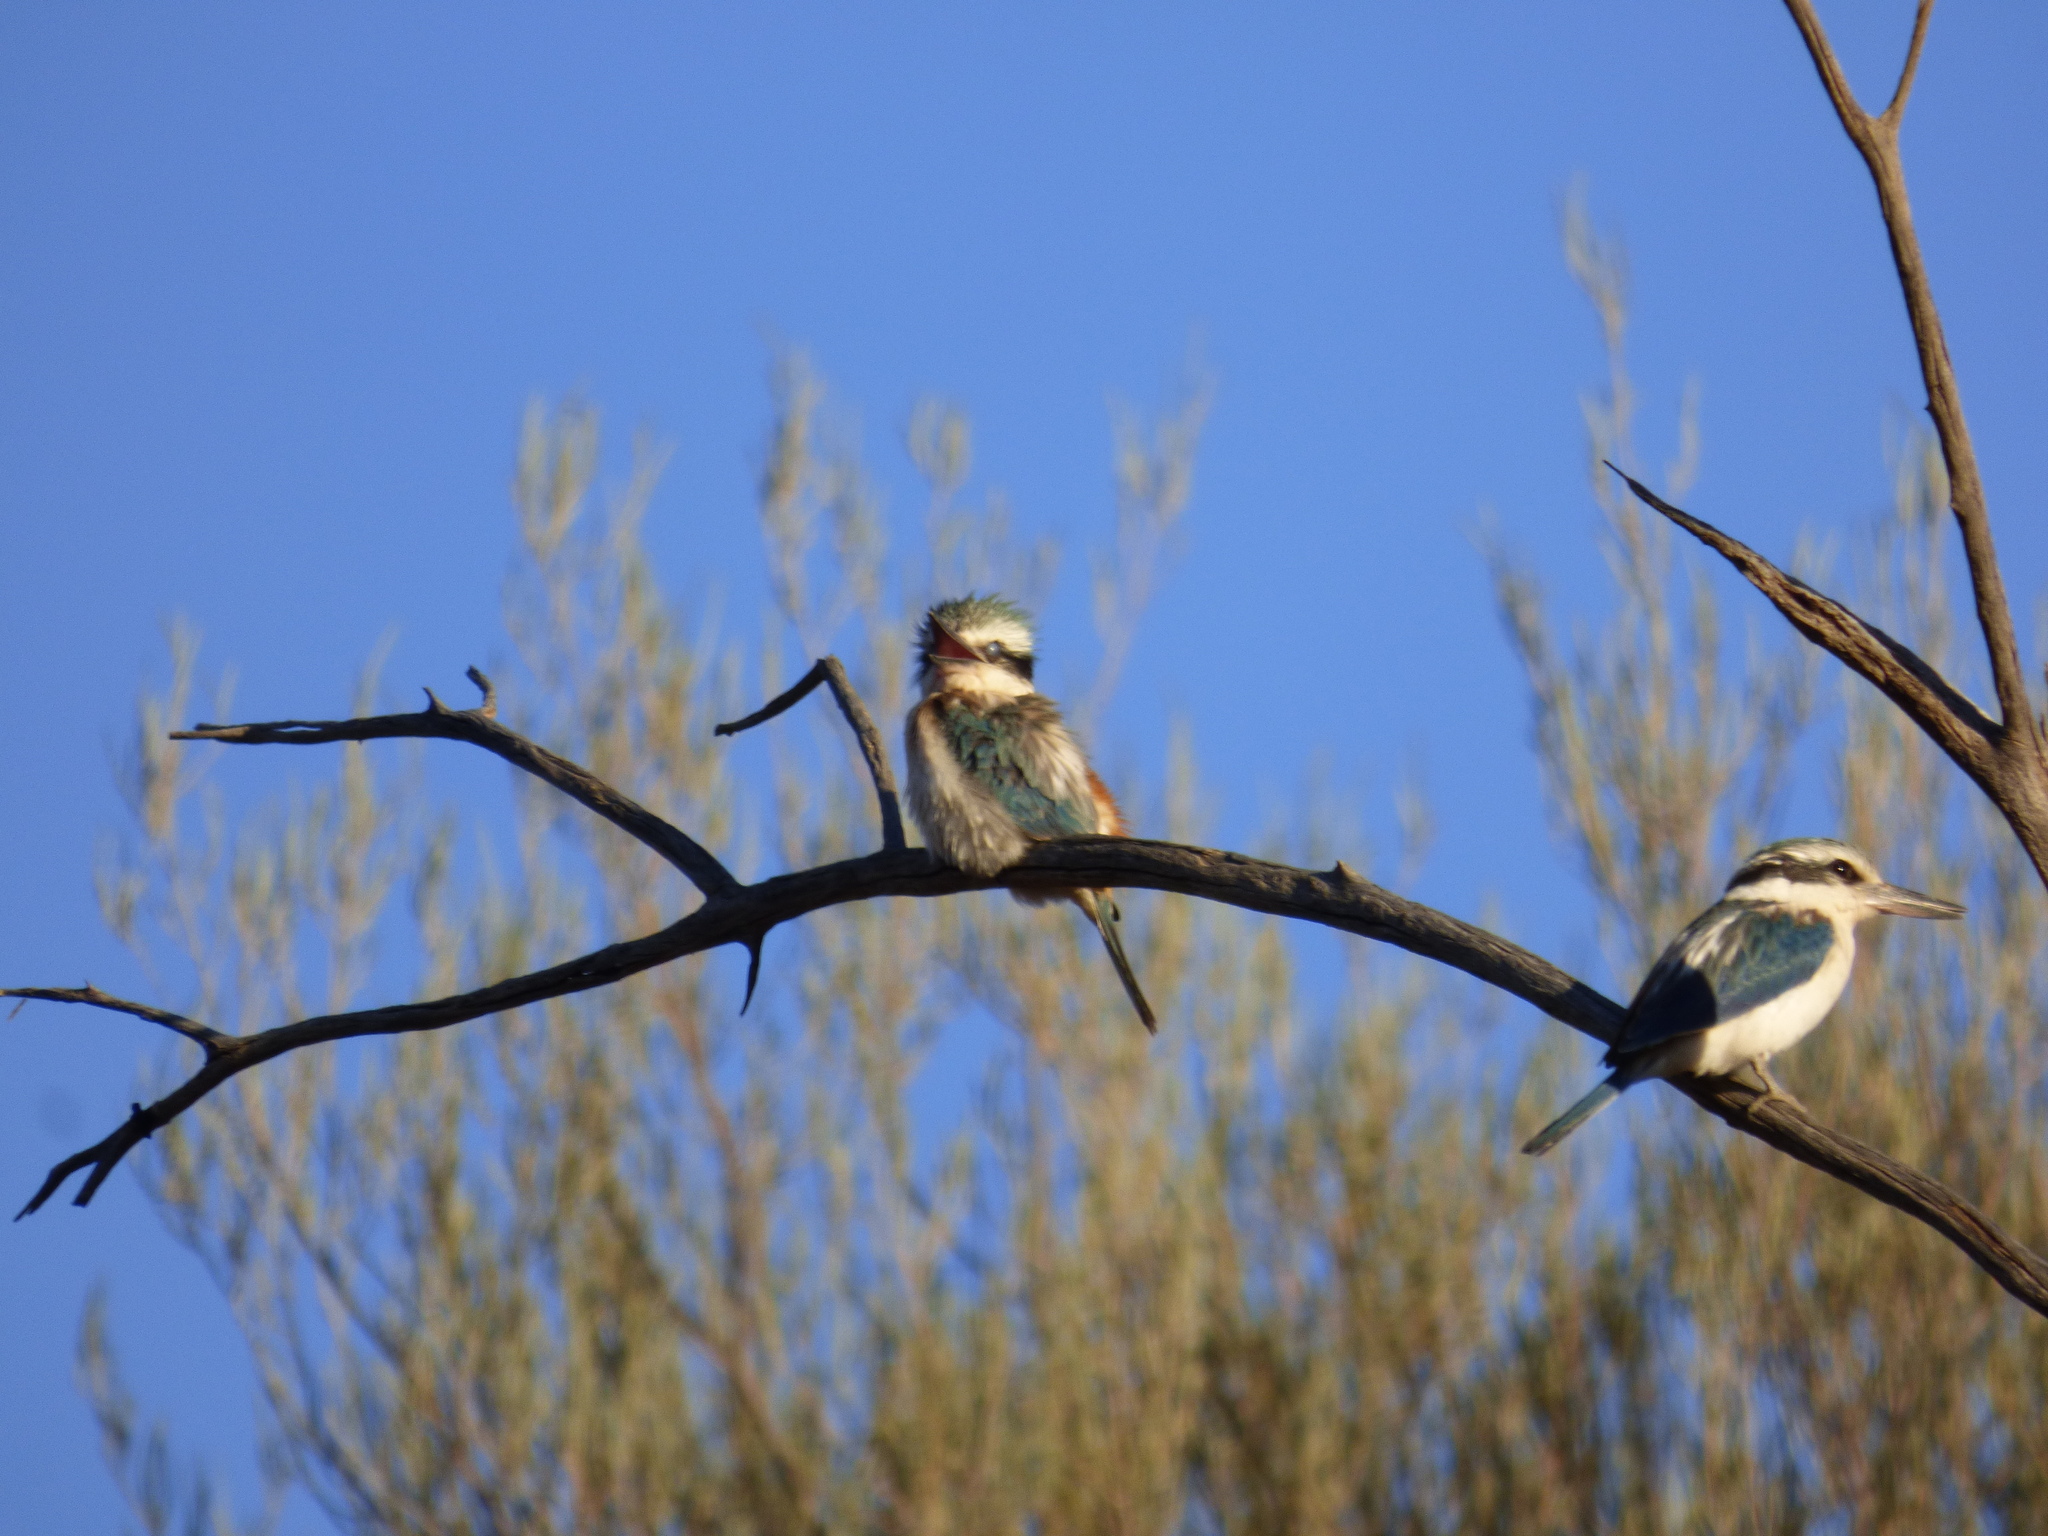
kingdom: Animalia
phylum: Chordata
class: Aves
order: Coraciiformes
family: Alcedinidae
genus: Todiramphus
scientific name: Todiramphus pyrrhopygius
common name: Red-backed kingfisher
